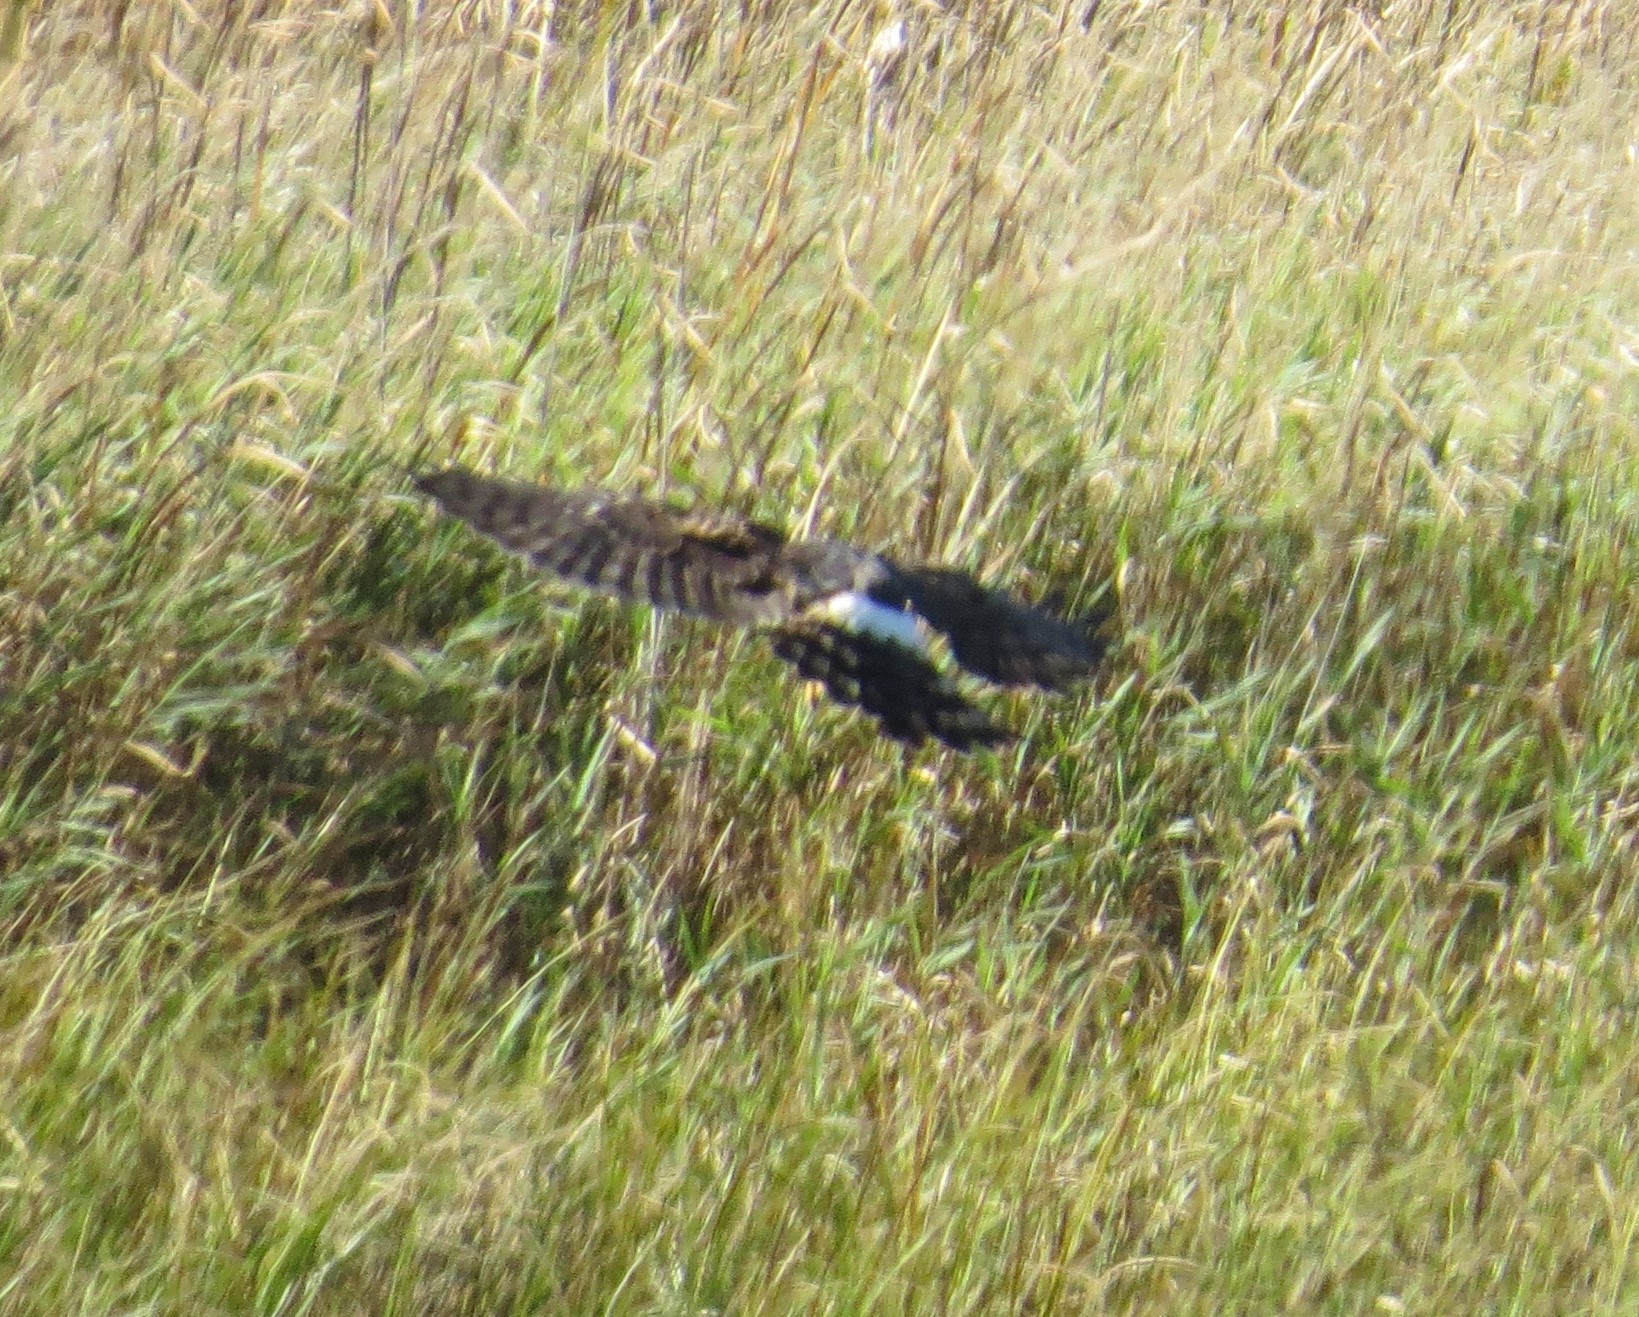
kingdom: Animalia
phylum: Chordata
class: Aves
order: Accipitriformes
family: Accipitridae
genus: Circus
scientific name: Circus cyaneus
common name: Hen harrier
